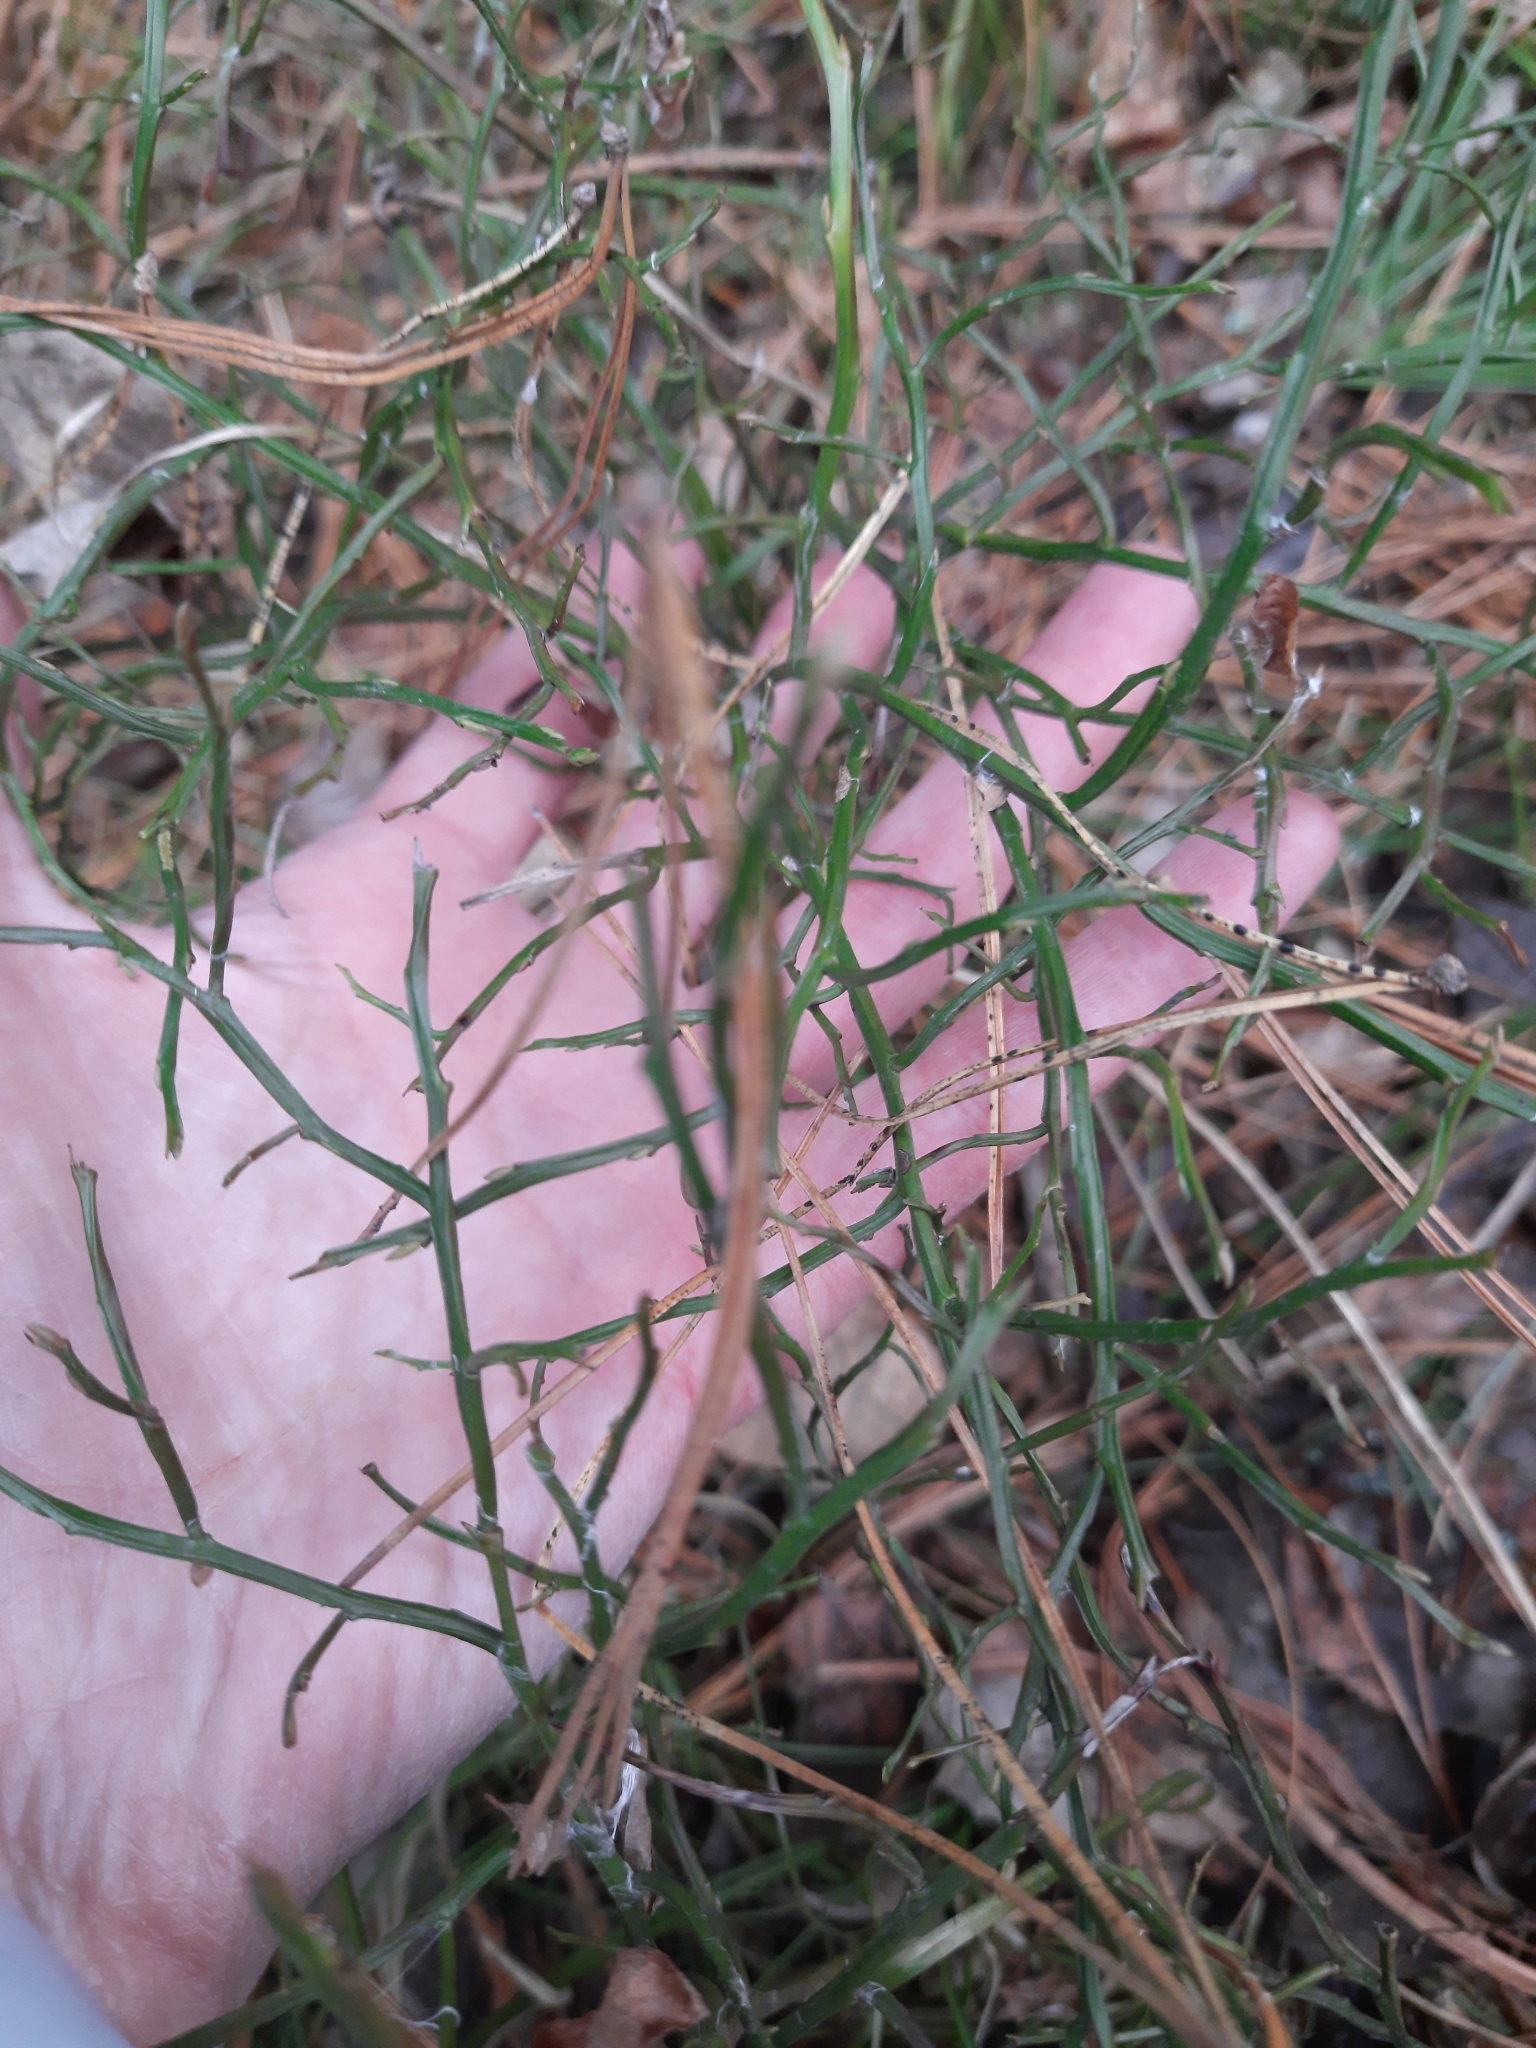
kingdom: Plantae
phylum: Tracheophyta
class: Magnoliopsida
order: Ericales
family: Ericaceae
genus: Vaccinium
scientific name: Vaccinium myrtillus
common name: Bilberry
